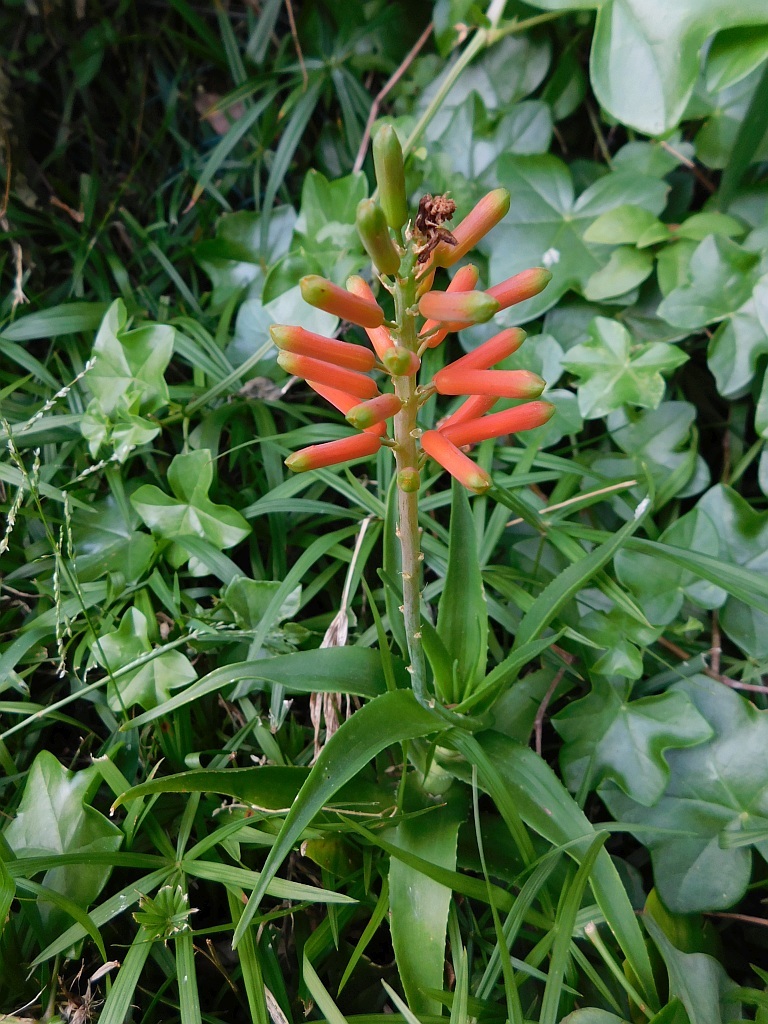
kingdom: Plantae
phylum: Tracheophyta
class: Liliopsida
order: Asparagales
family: Asphodelaceae
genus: Aloiampelos
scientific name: Aloiampelos ciliaris
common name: Climbing aloe
